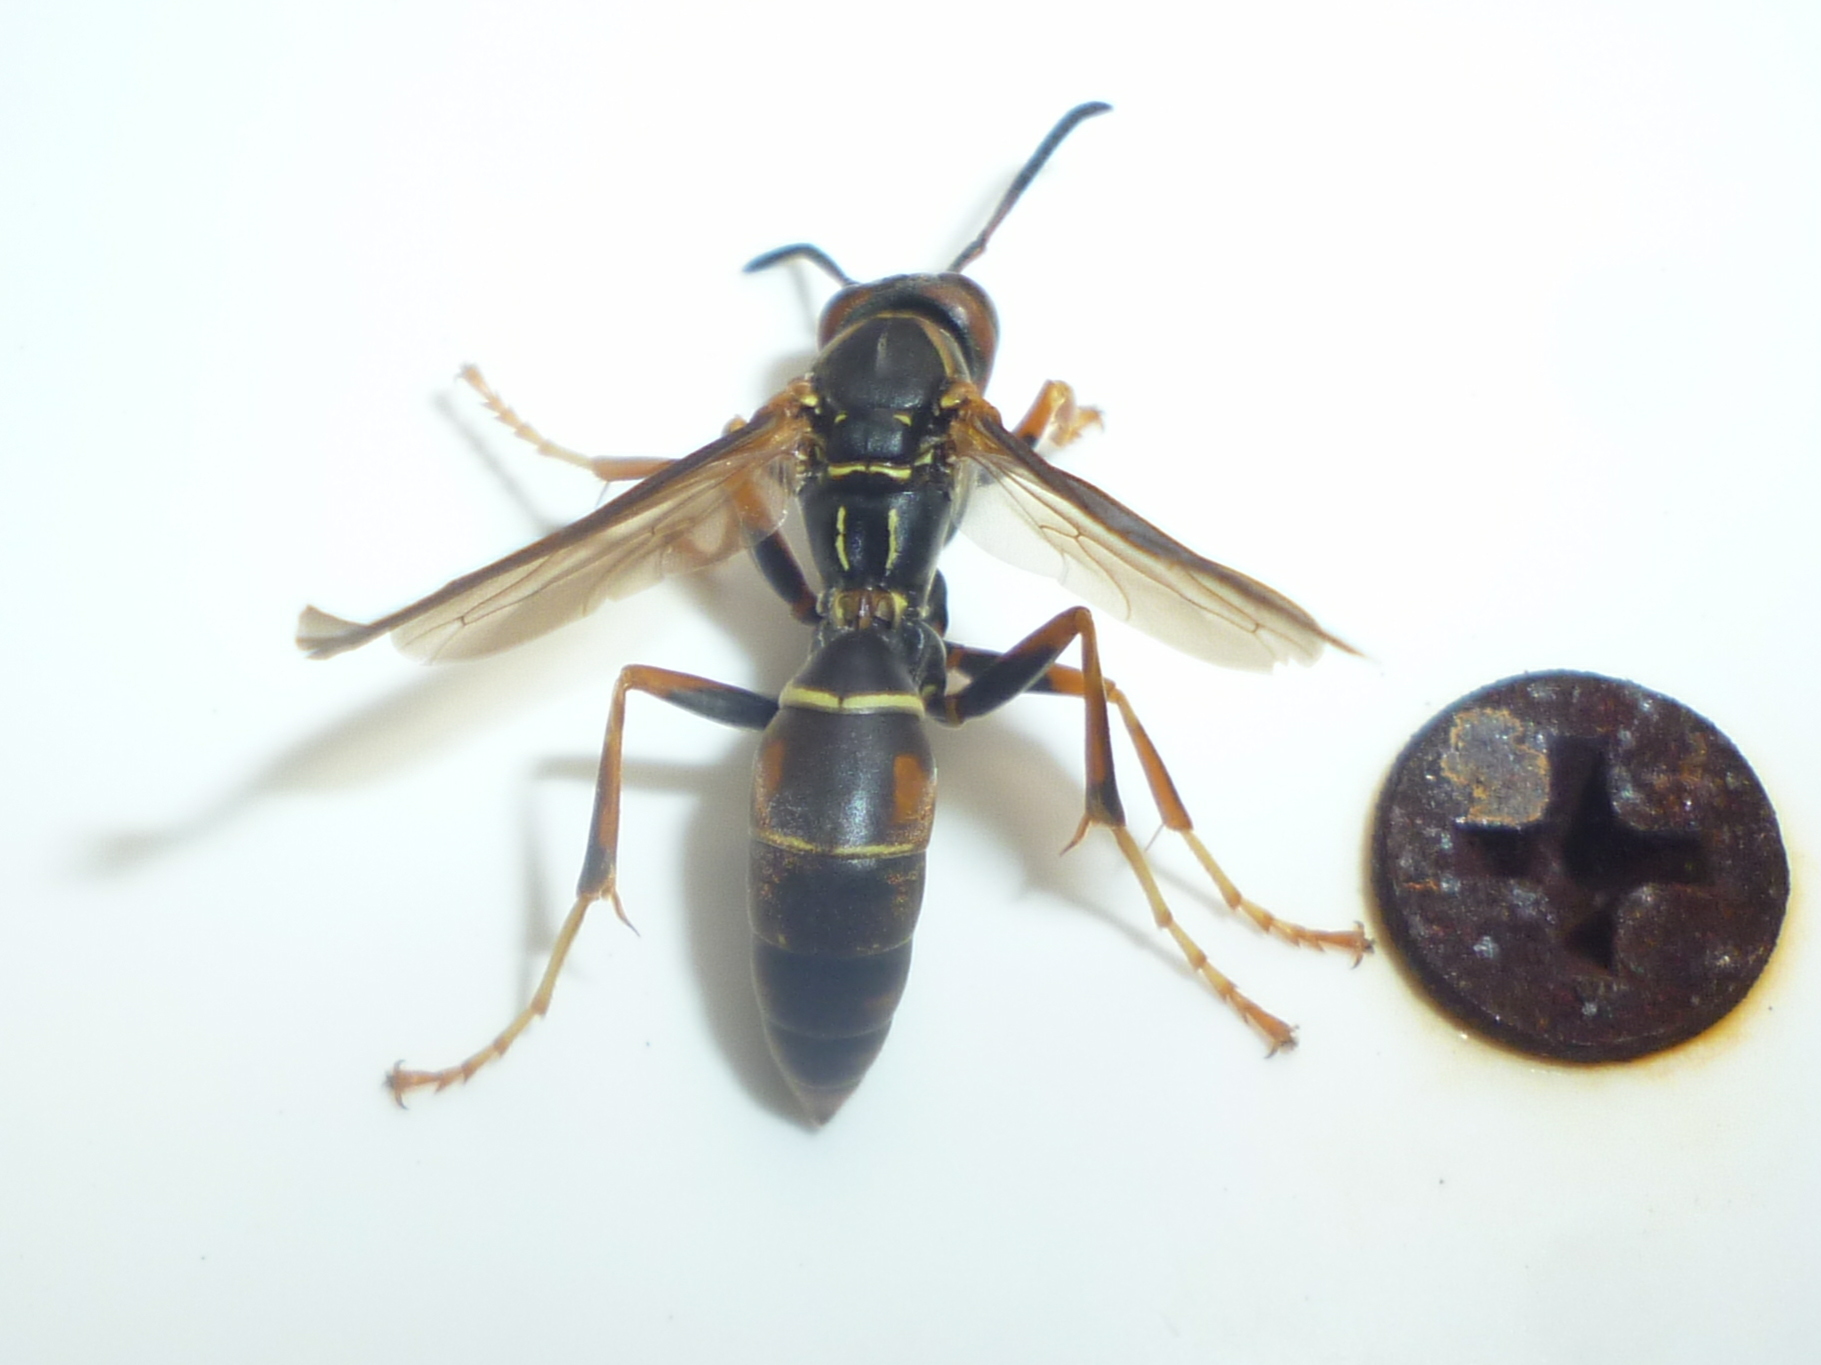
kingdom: Animalia
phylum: Arthropoda
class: Insecta
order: Hymenoptera
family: Eumenidae
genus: Polistes
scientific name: Polistes fuscatus
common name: Dark paper wasp
